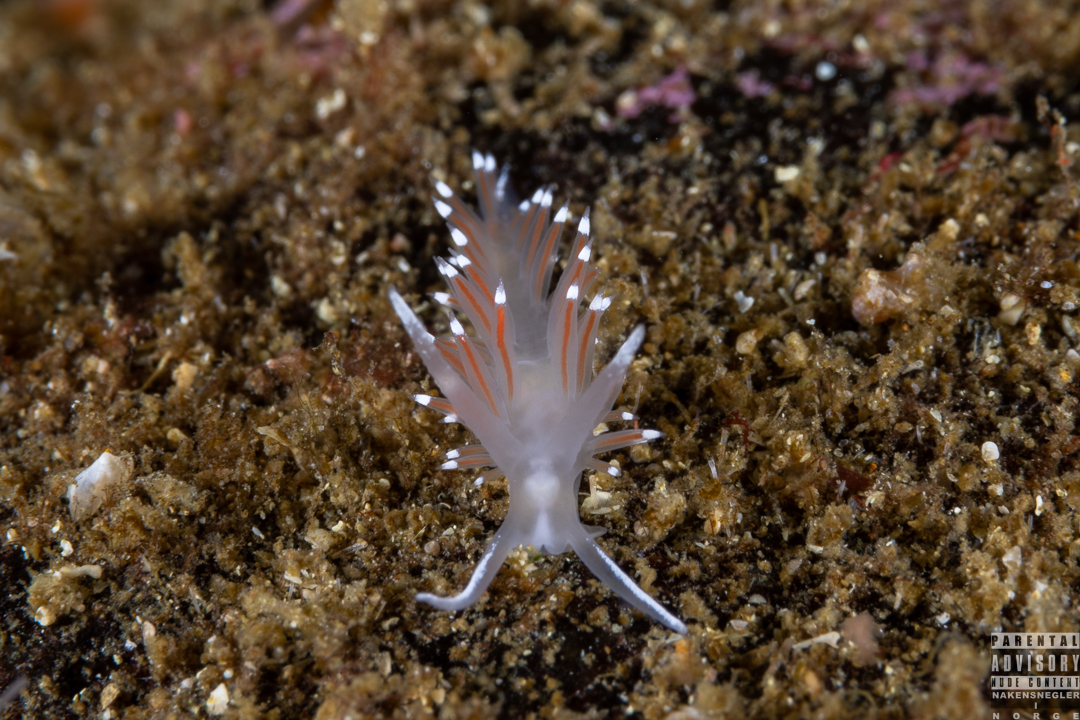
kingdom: Animalia
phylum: Mollusca
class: Gastropoda
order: Nudibranchia
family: Coryphellidae
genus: Coryphella
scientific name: Coryphella verrucosa
